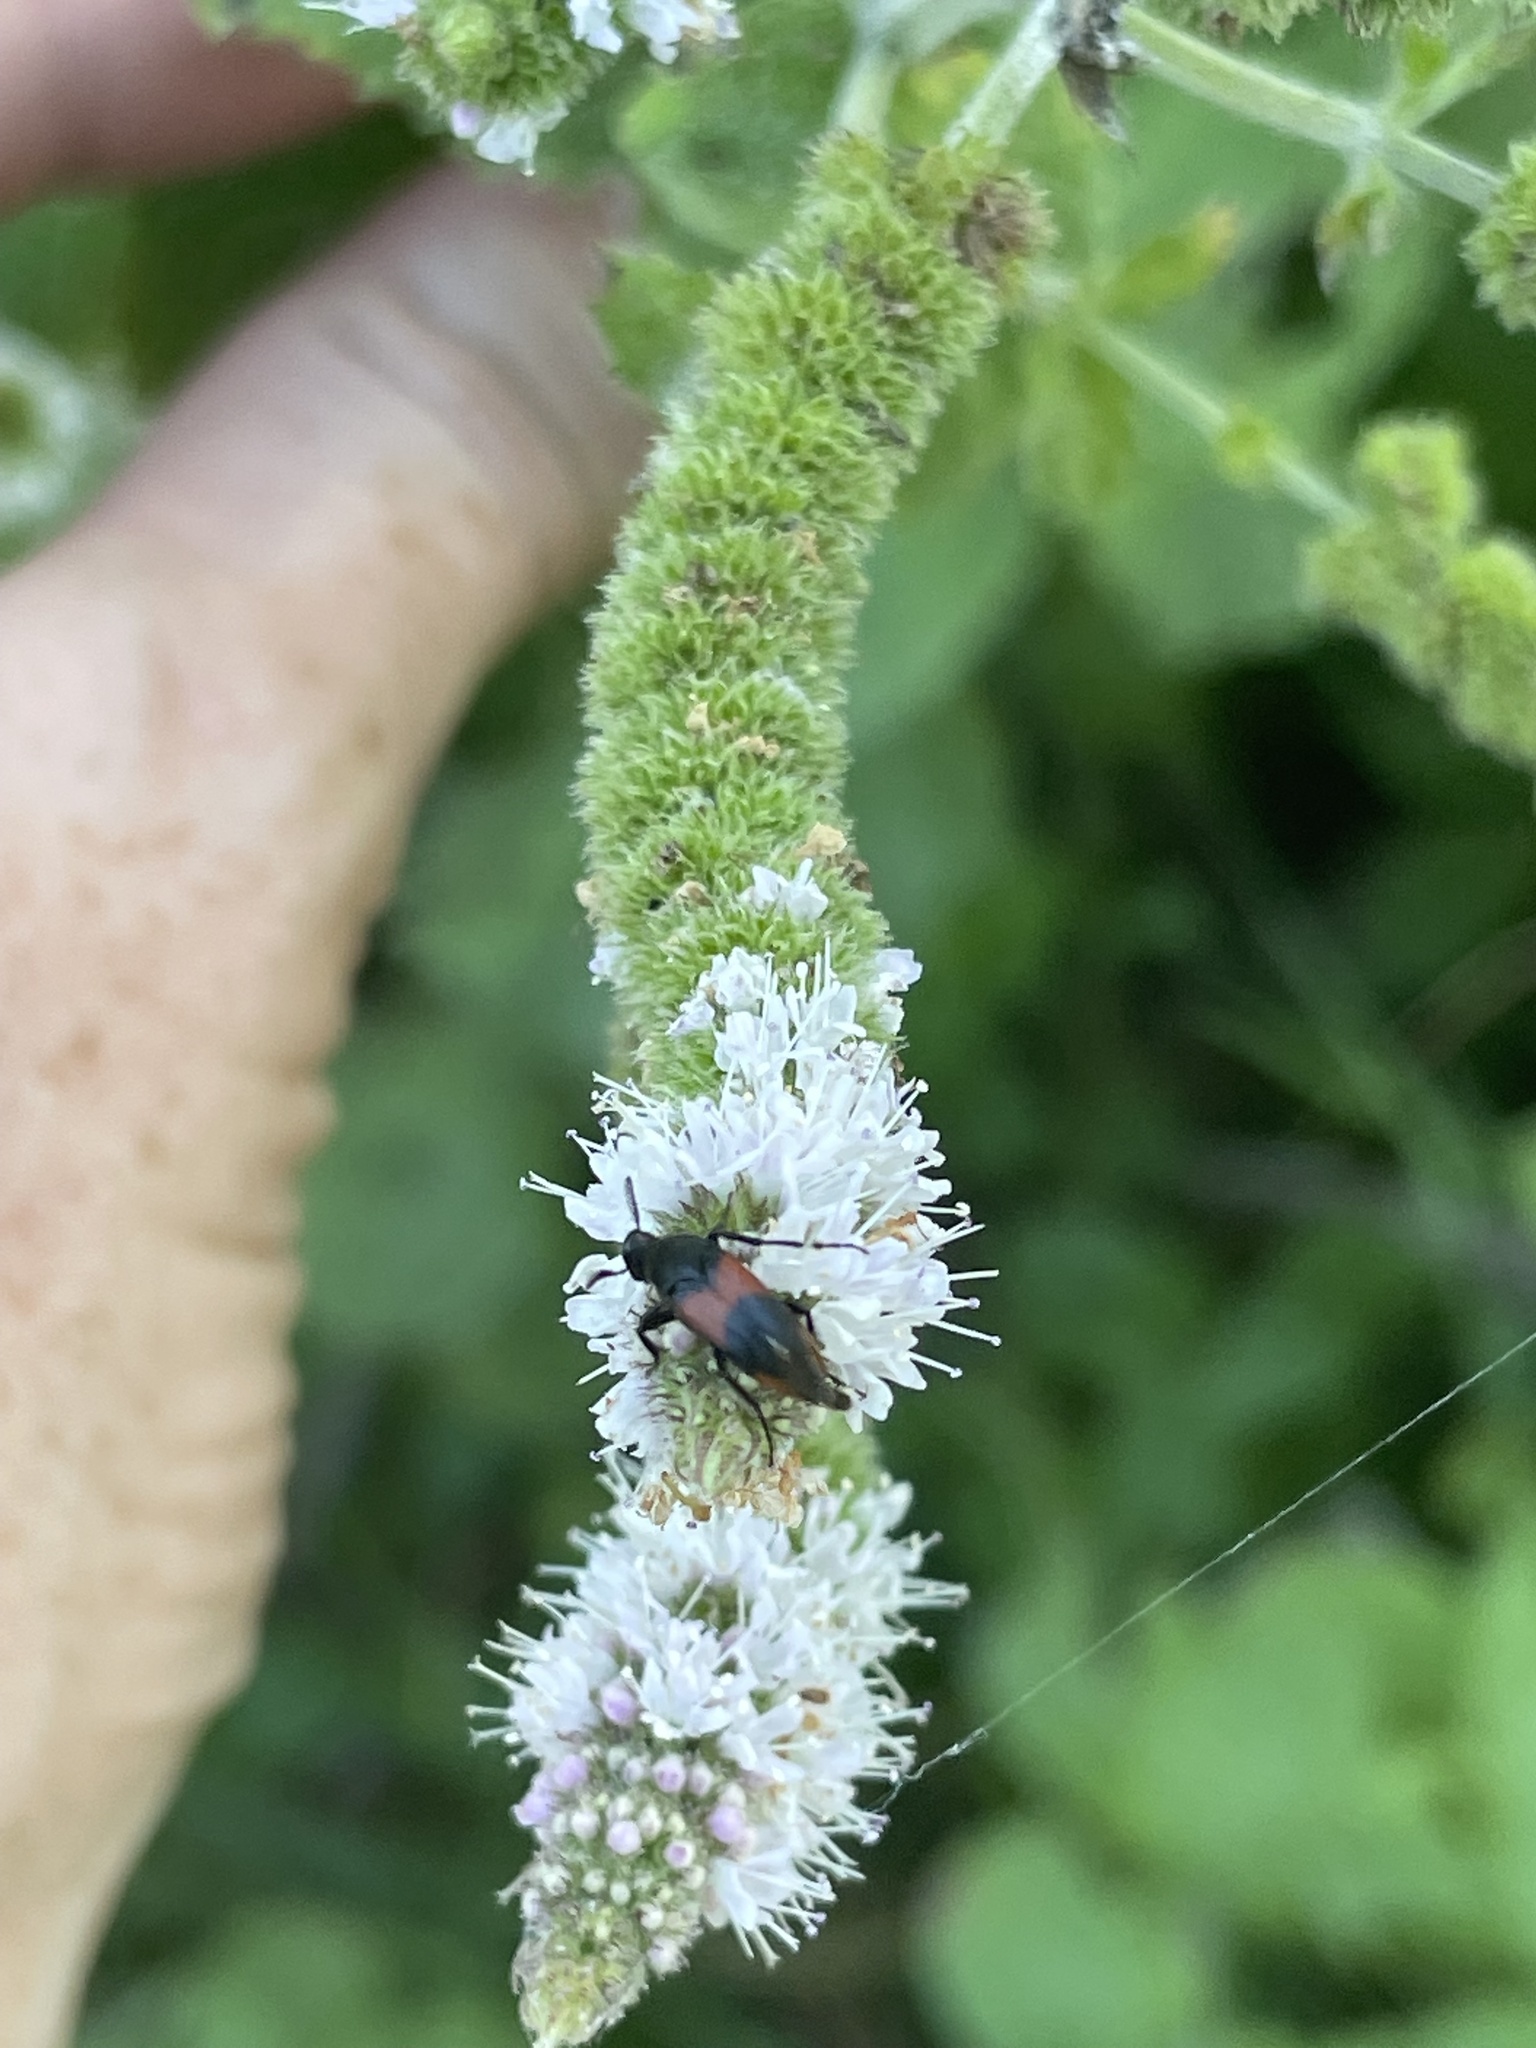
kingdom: Animalia
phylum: Arthropoda
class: Insecta
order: Coleoptera
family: Ripiphoridae
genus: Macrosiagon
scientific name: Macrosiagon cruentum
